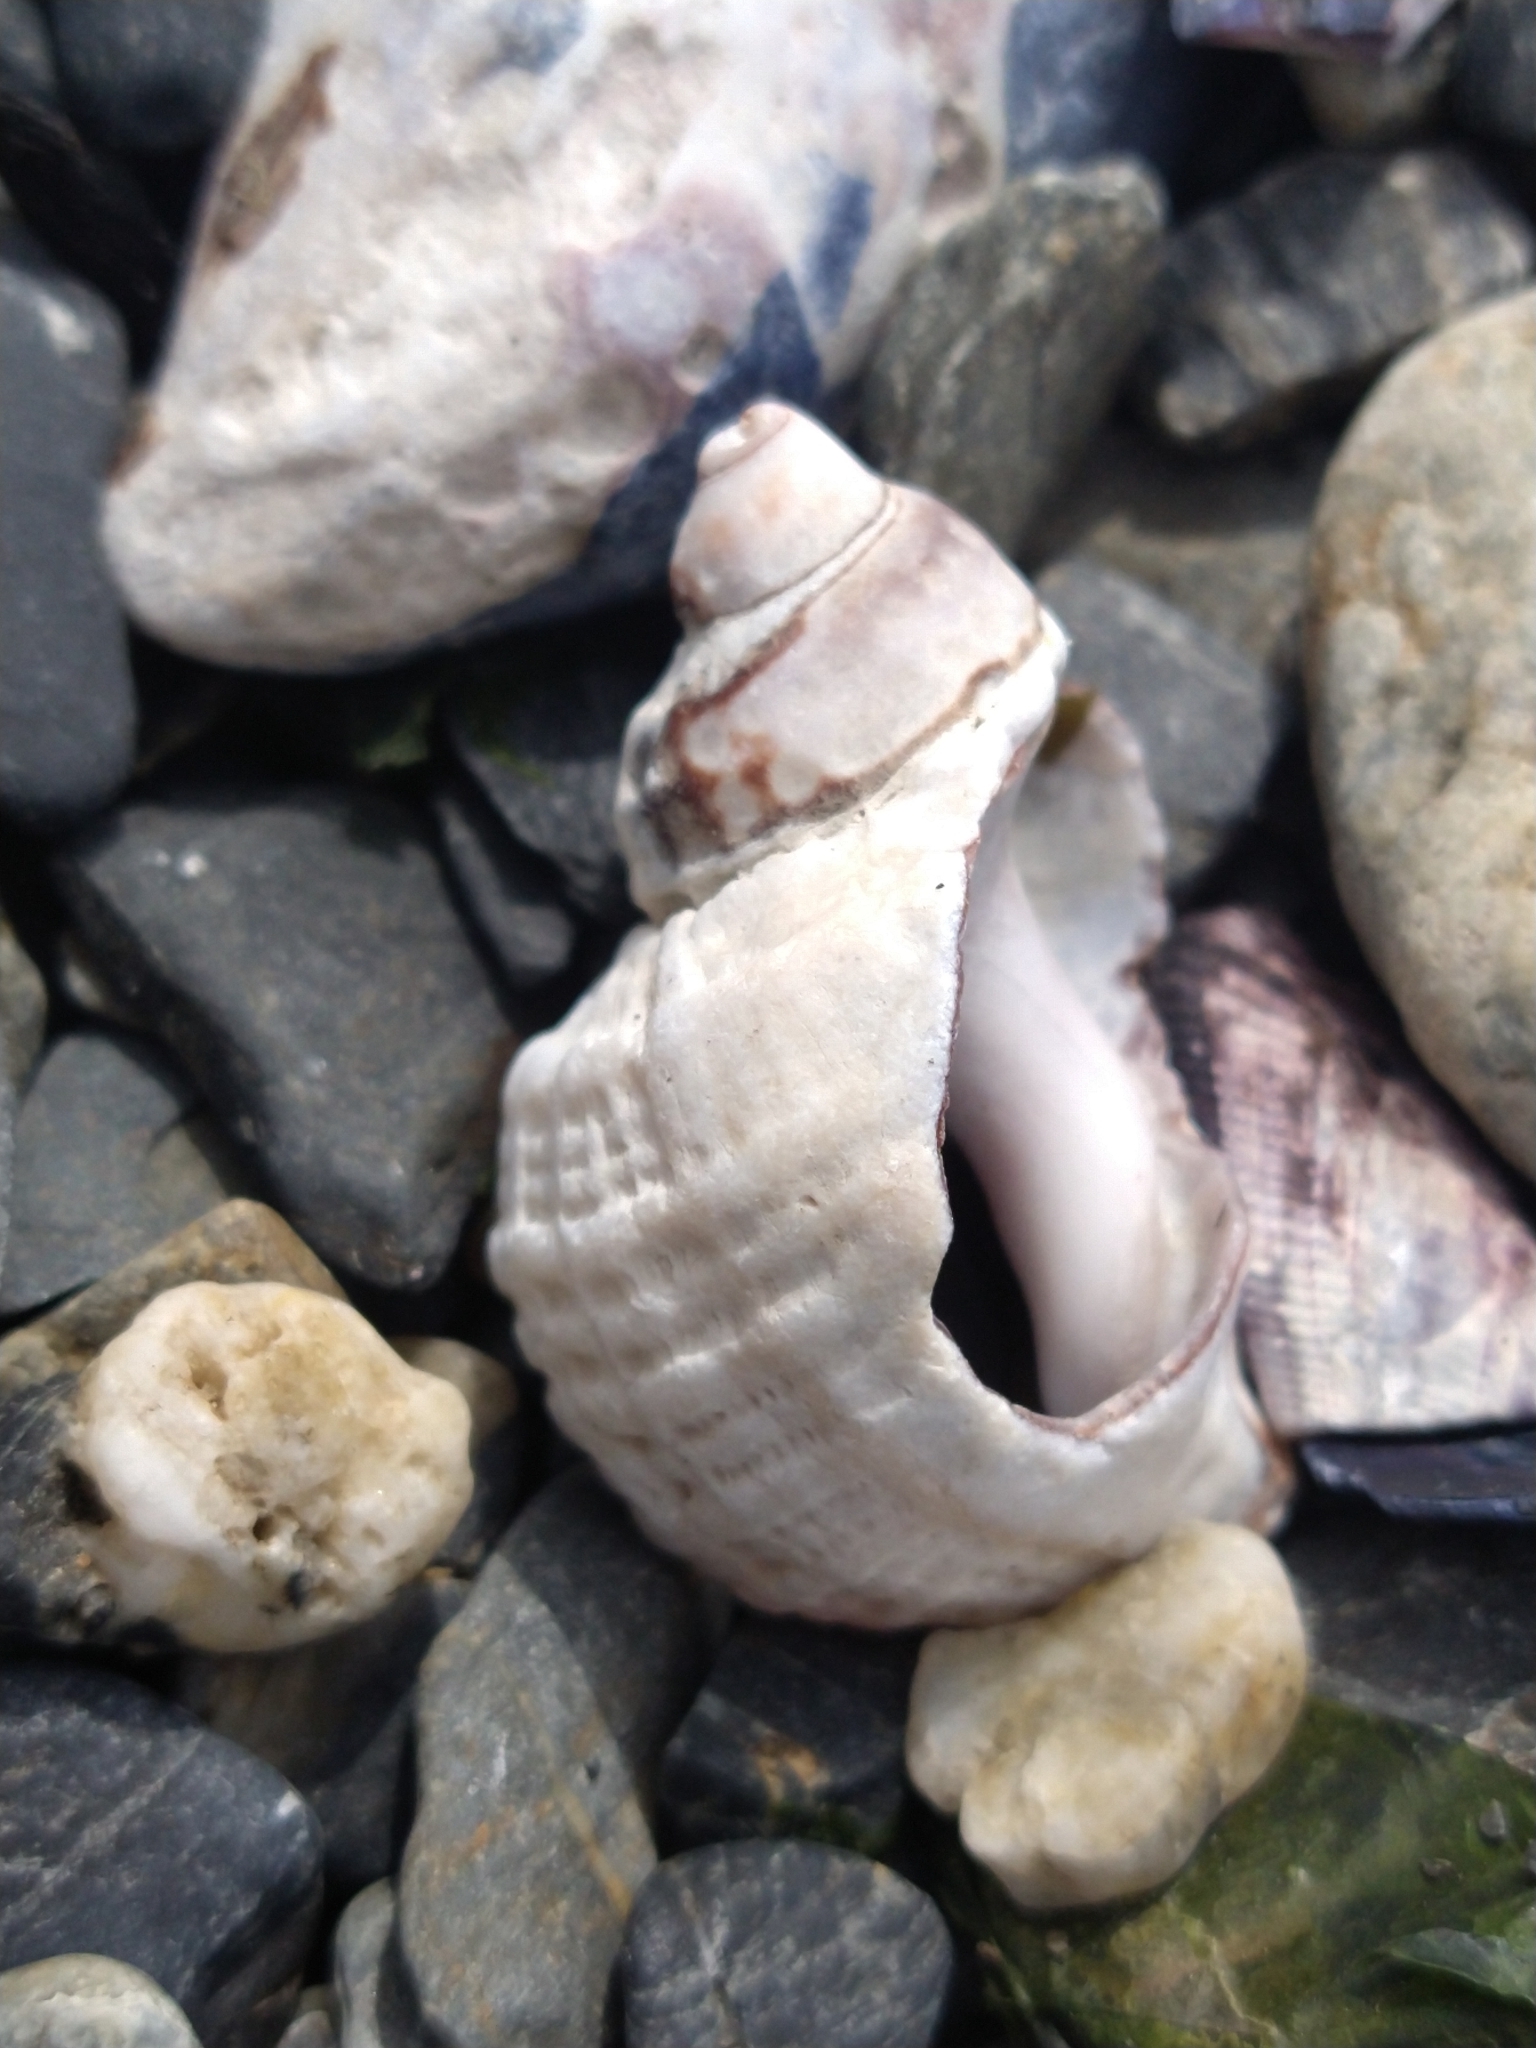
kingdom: Animalia
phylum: Mollusca
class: Gastropoda
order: Neogastropoda
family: Muricidae
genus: Trophon
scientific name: Trophon geversianus
